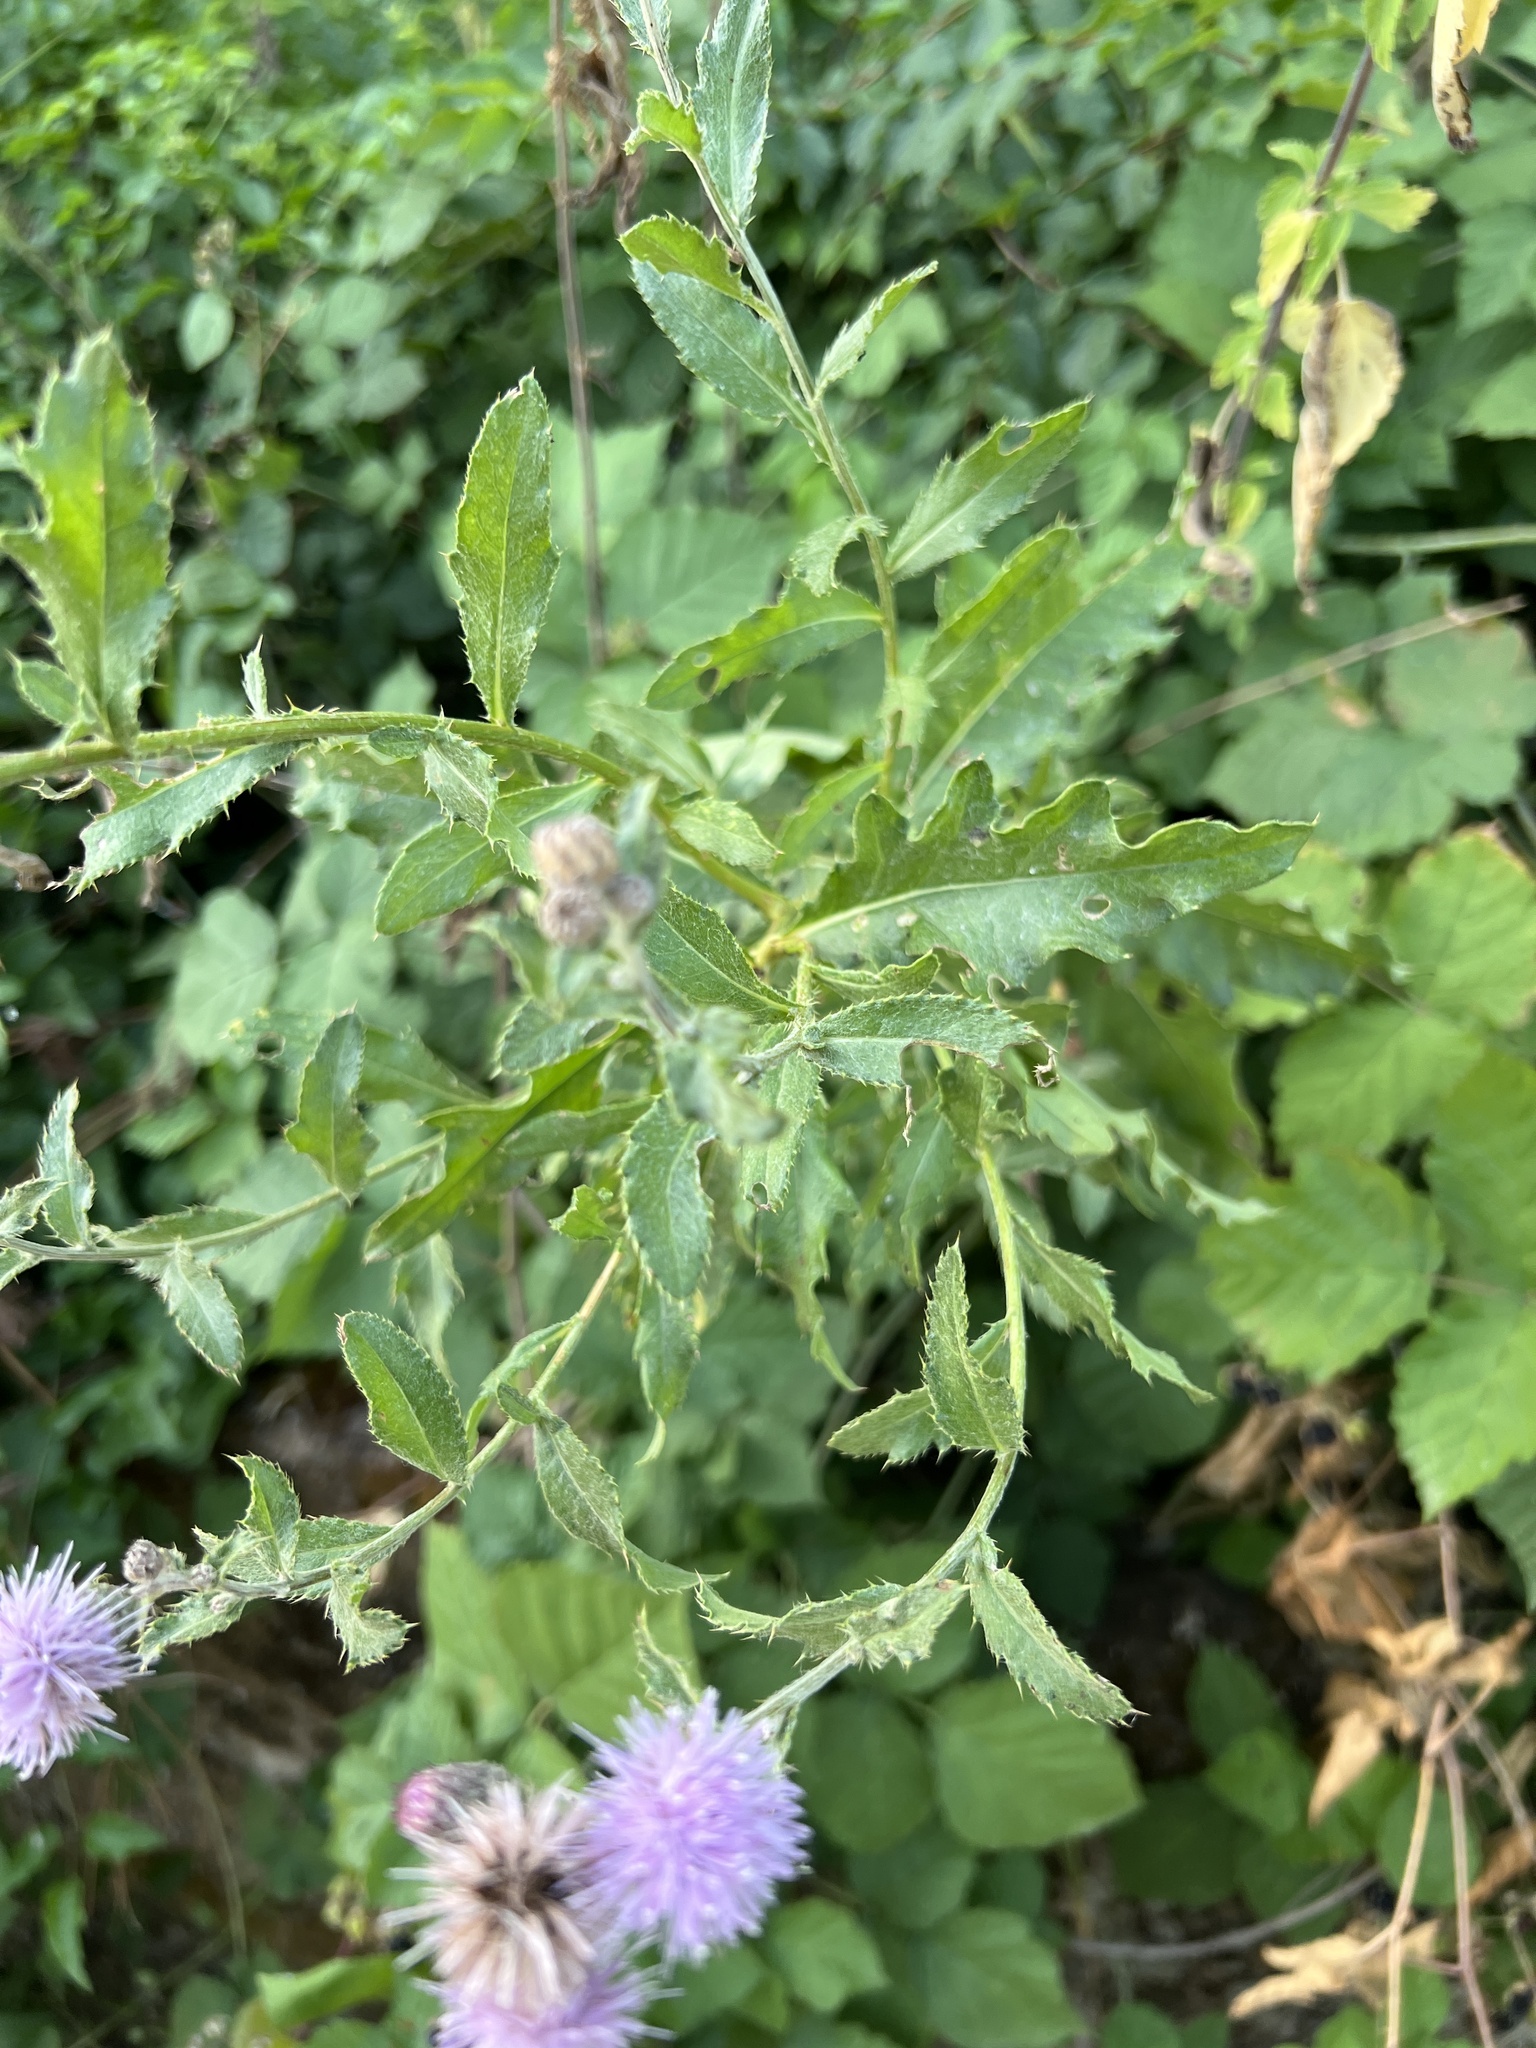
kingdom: Plantae
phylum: Tracheophyta
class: Magnoliopsida
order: Asterales
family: Asteraceae
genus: Cirsium
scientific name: Cirsium arvense
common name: Creeping thistle
